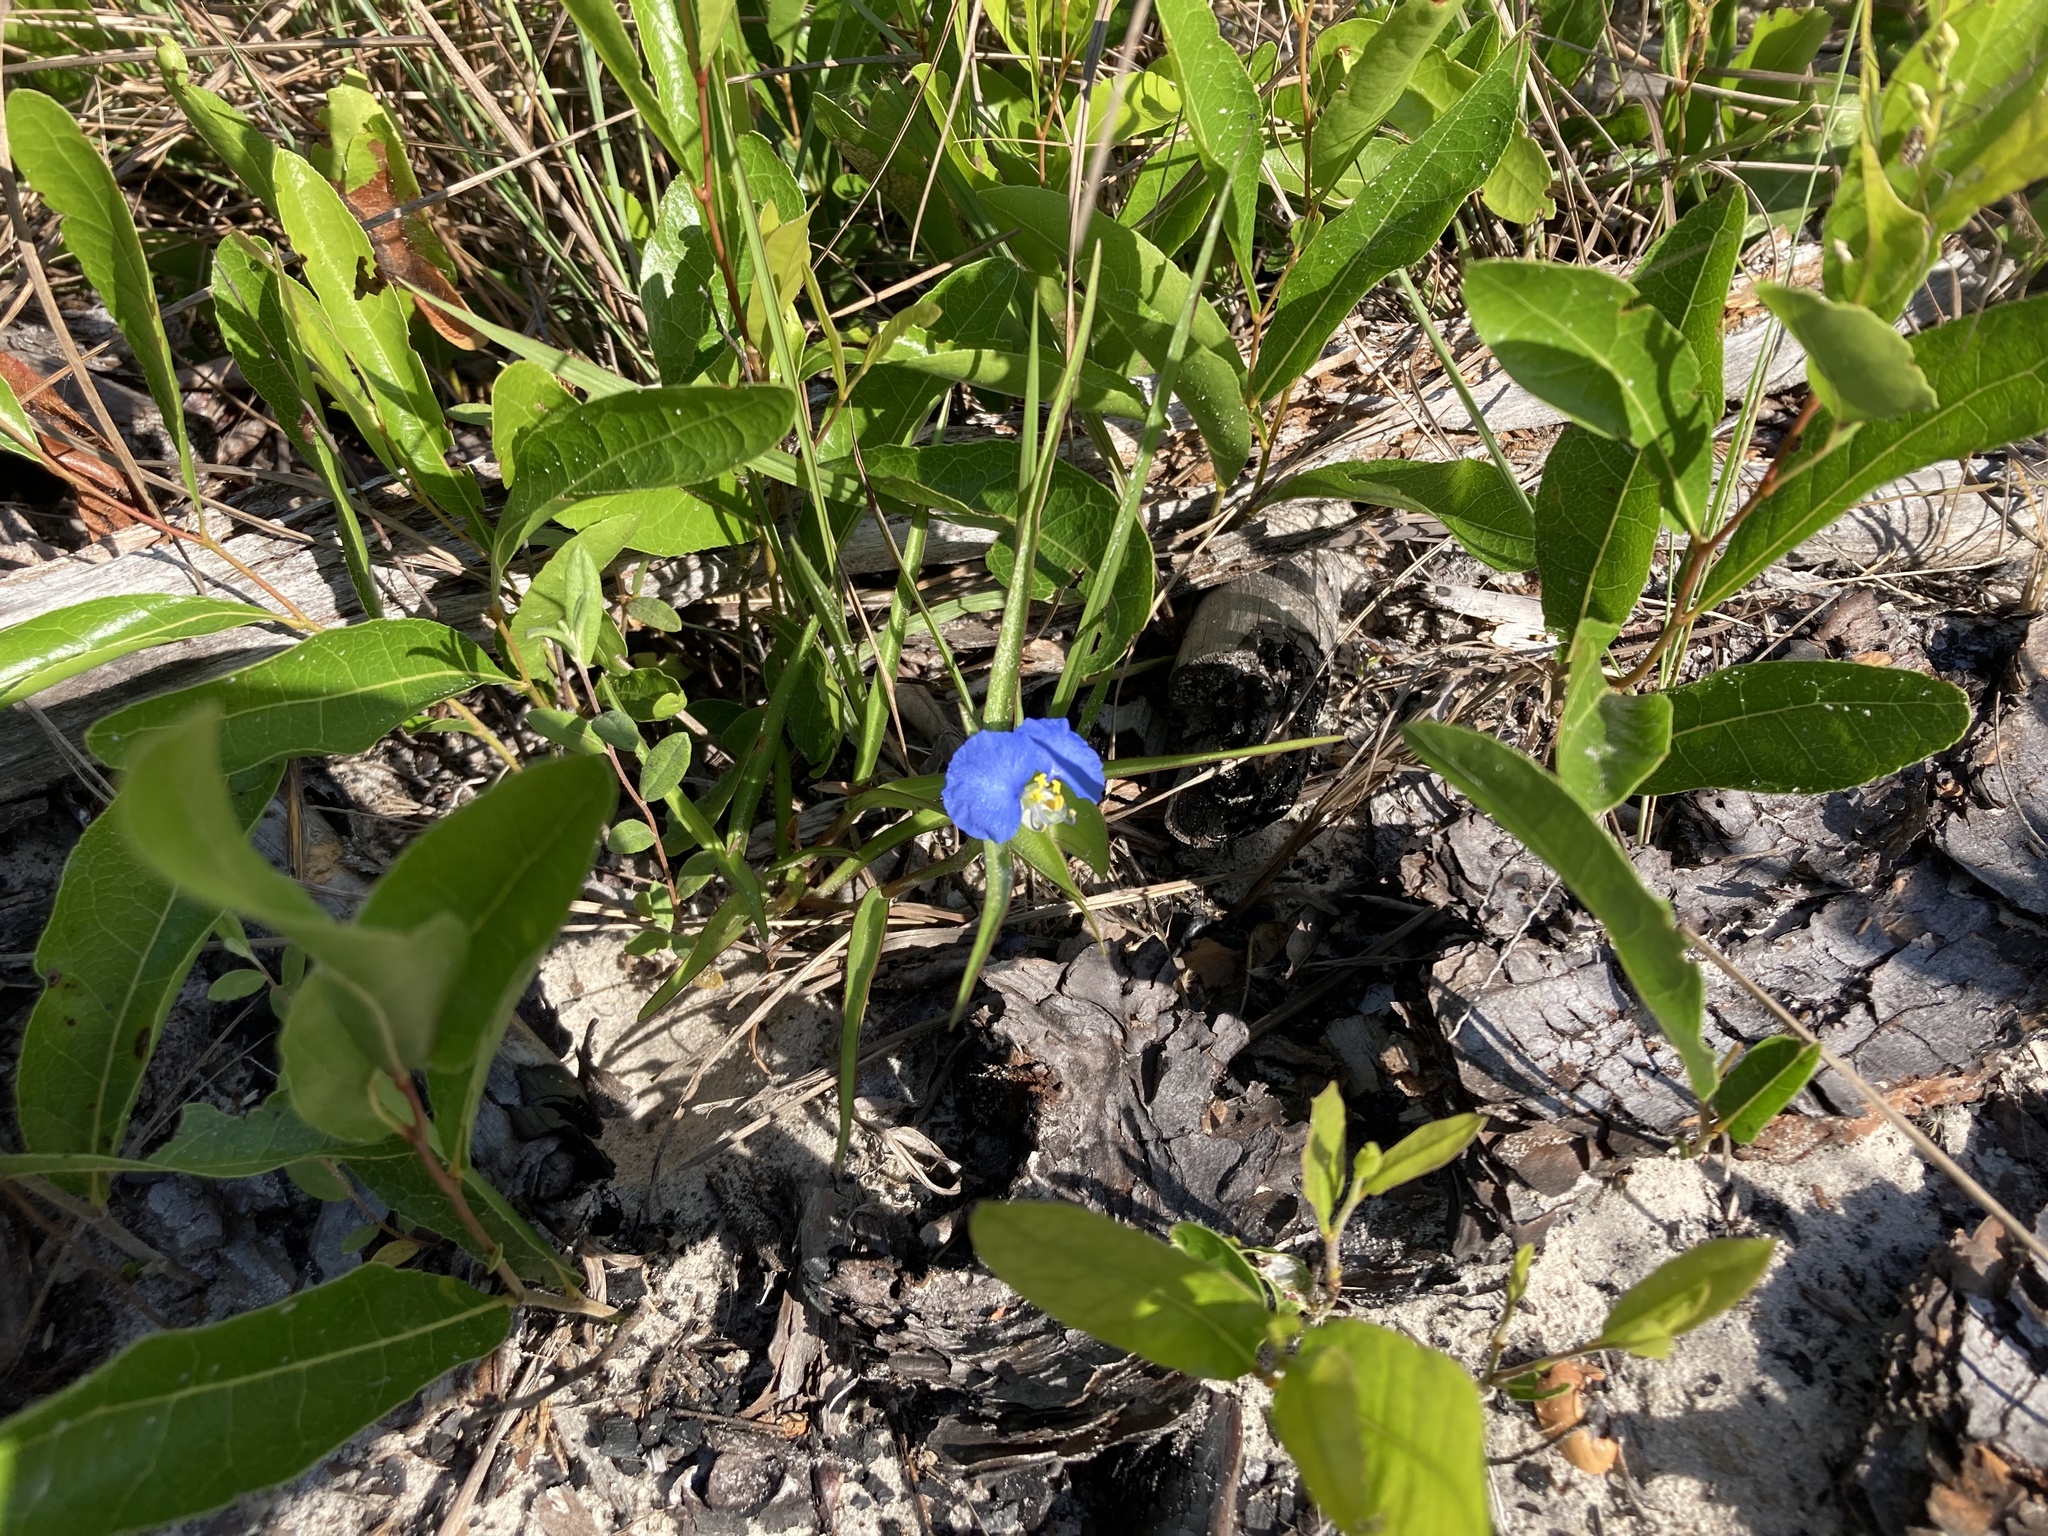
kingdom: Plantae
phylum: Tracheophyta
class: Liliopsida
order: Commelinales
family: Commelinaceae
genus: Commelina
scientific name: Commelina erecta
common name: Blousel blommetjie
